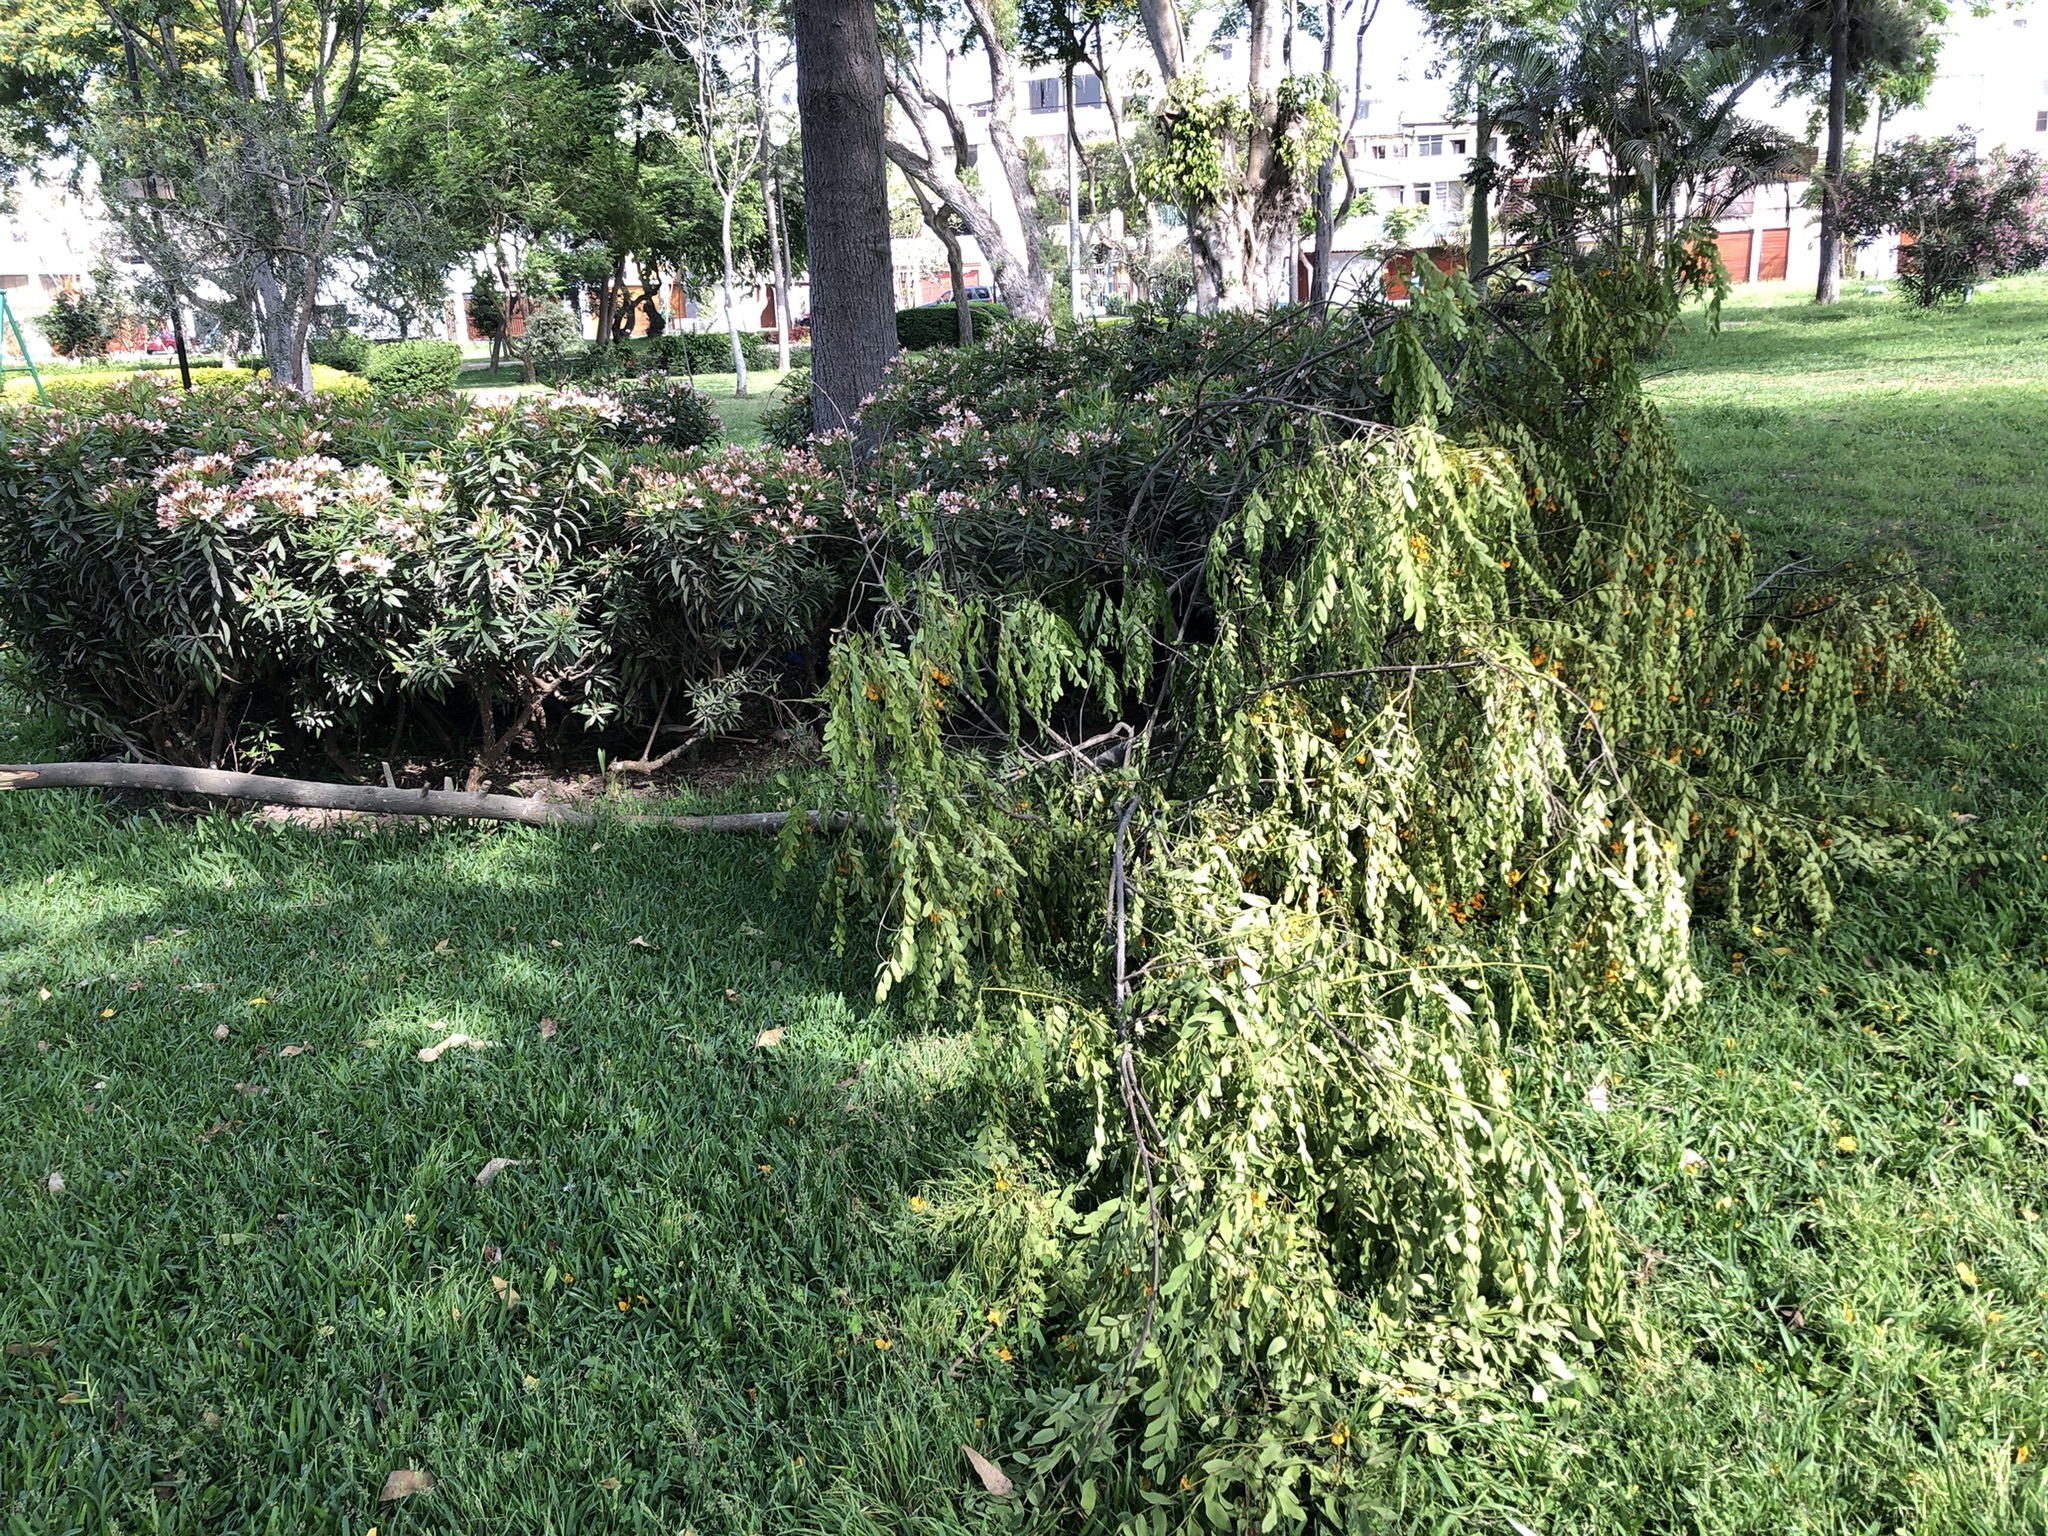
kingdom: Animalia
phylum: Chordata
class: Aves
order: Passeriformes
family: Thraupidae
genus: Volatinia
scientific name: Volatinia jacarina
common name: Blue-black grassquit
